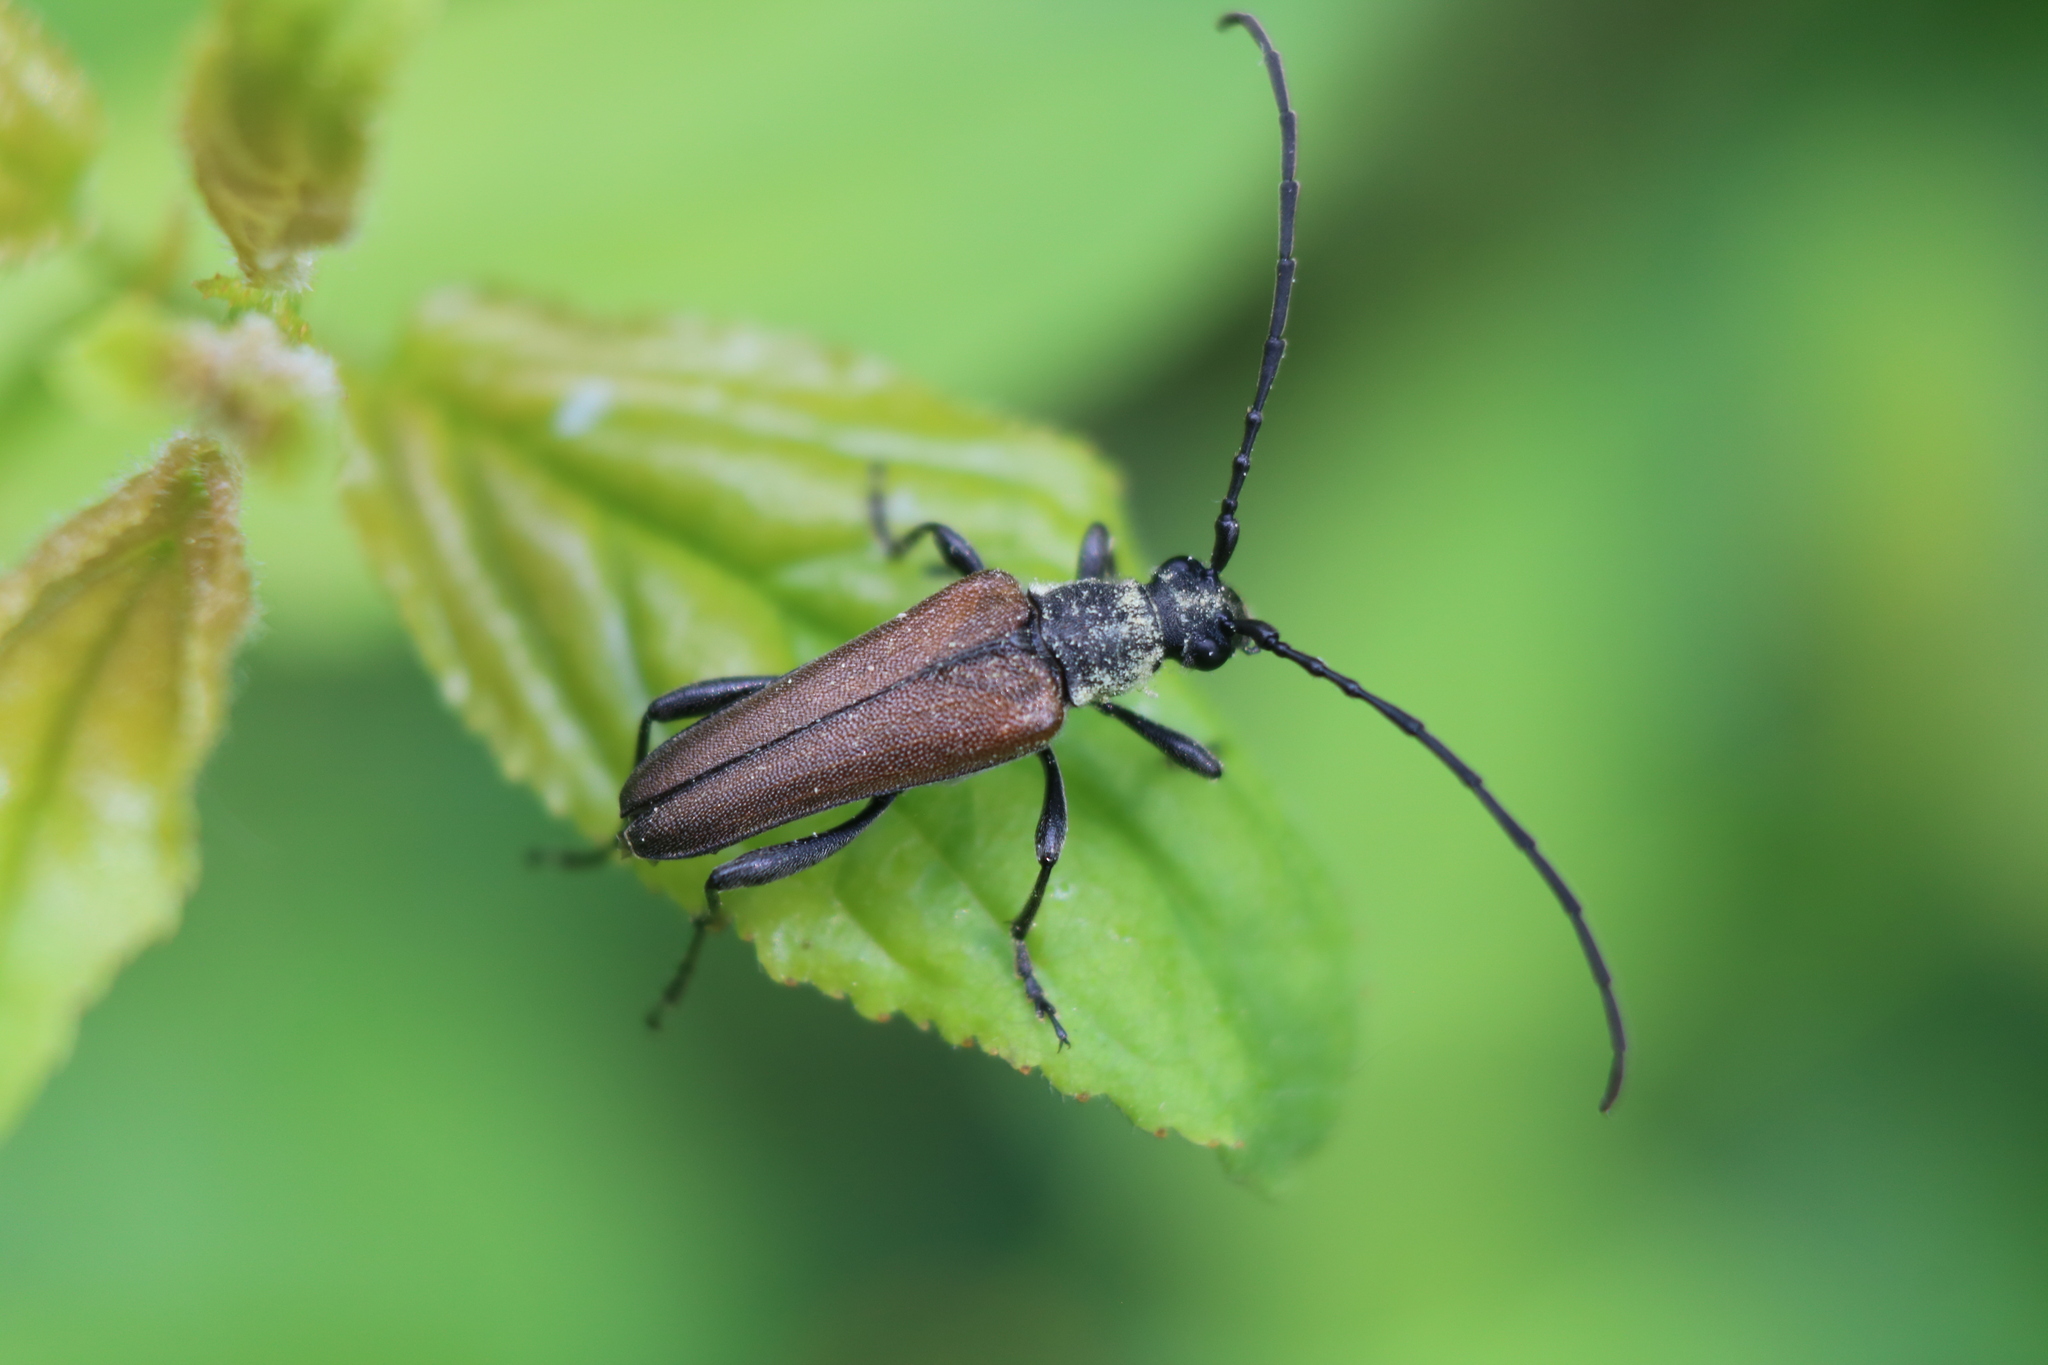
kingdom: Animalia
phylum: Arthropoda
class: Insecta
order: Coleoptera
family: Cerambycidae
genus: Trachysida
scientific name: Trachysida mutabilis
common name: Changeable flower longhorn
